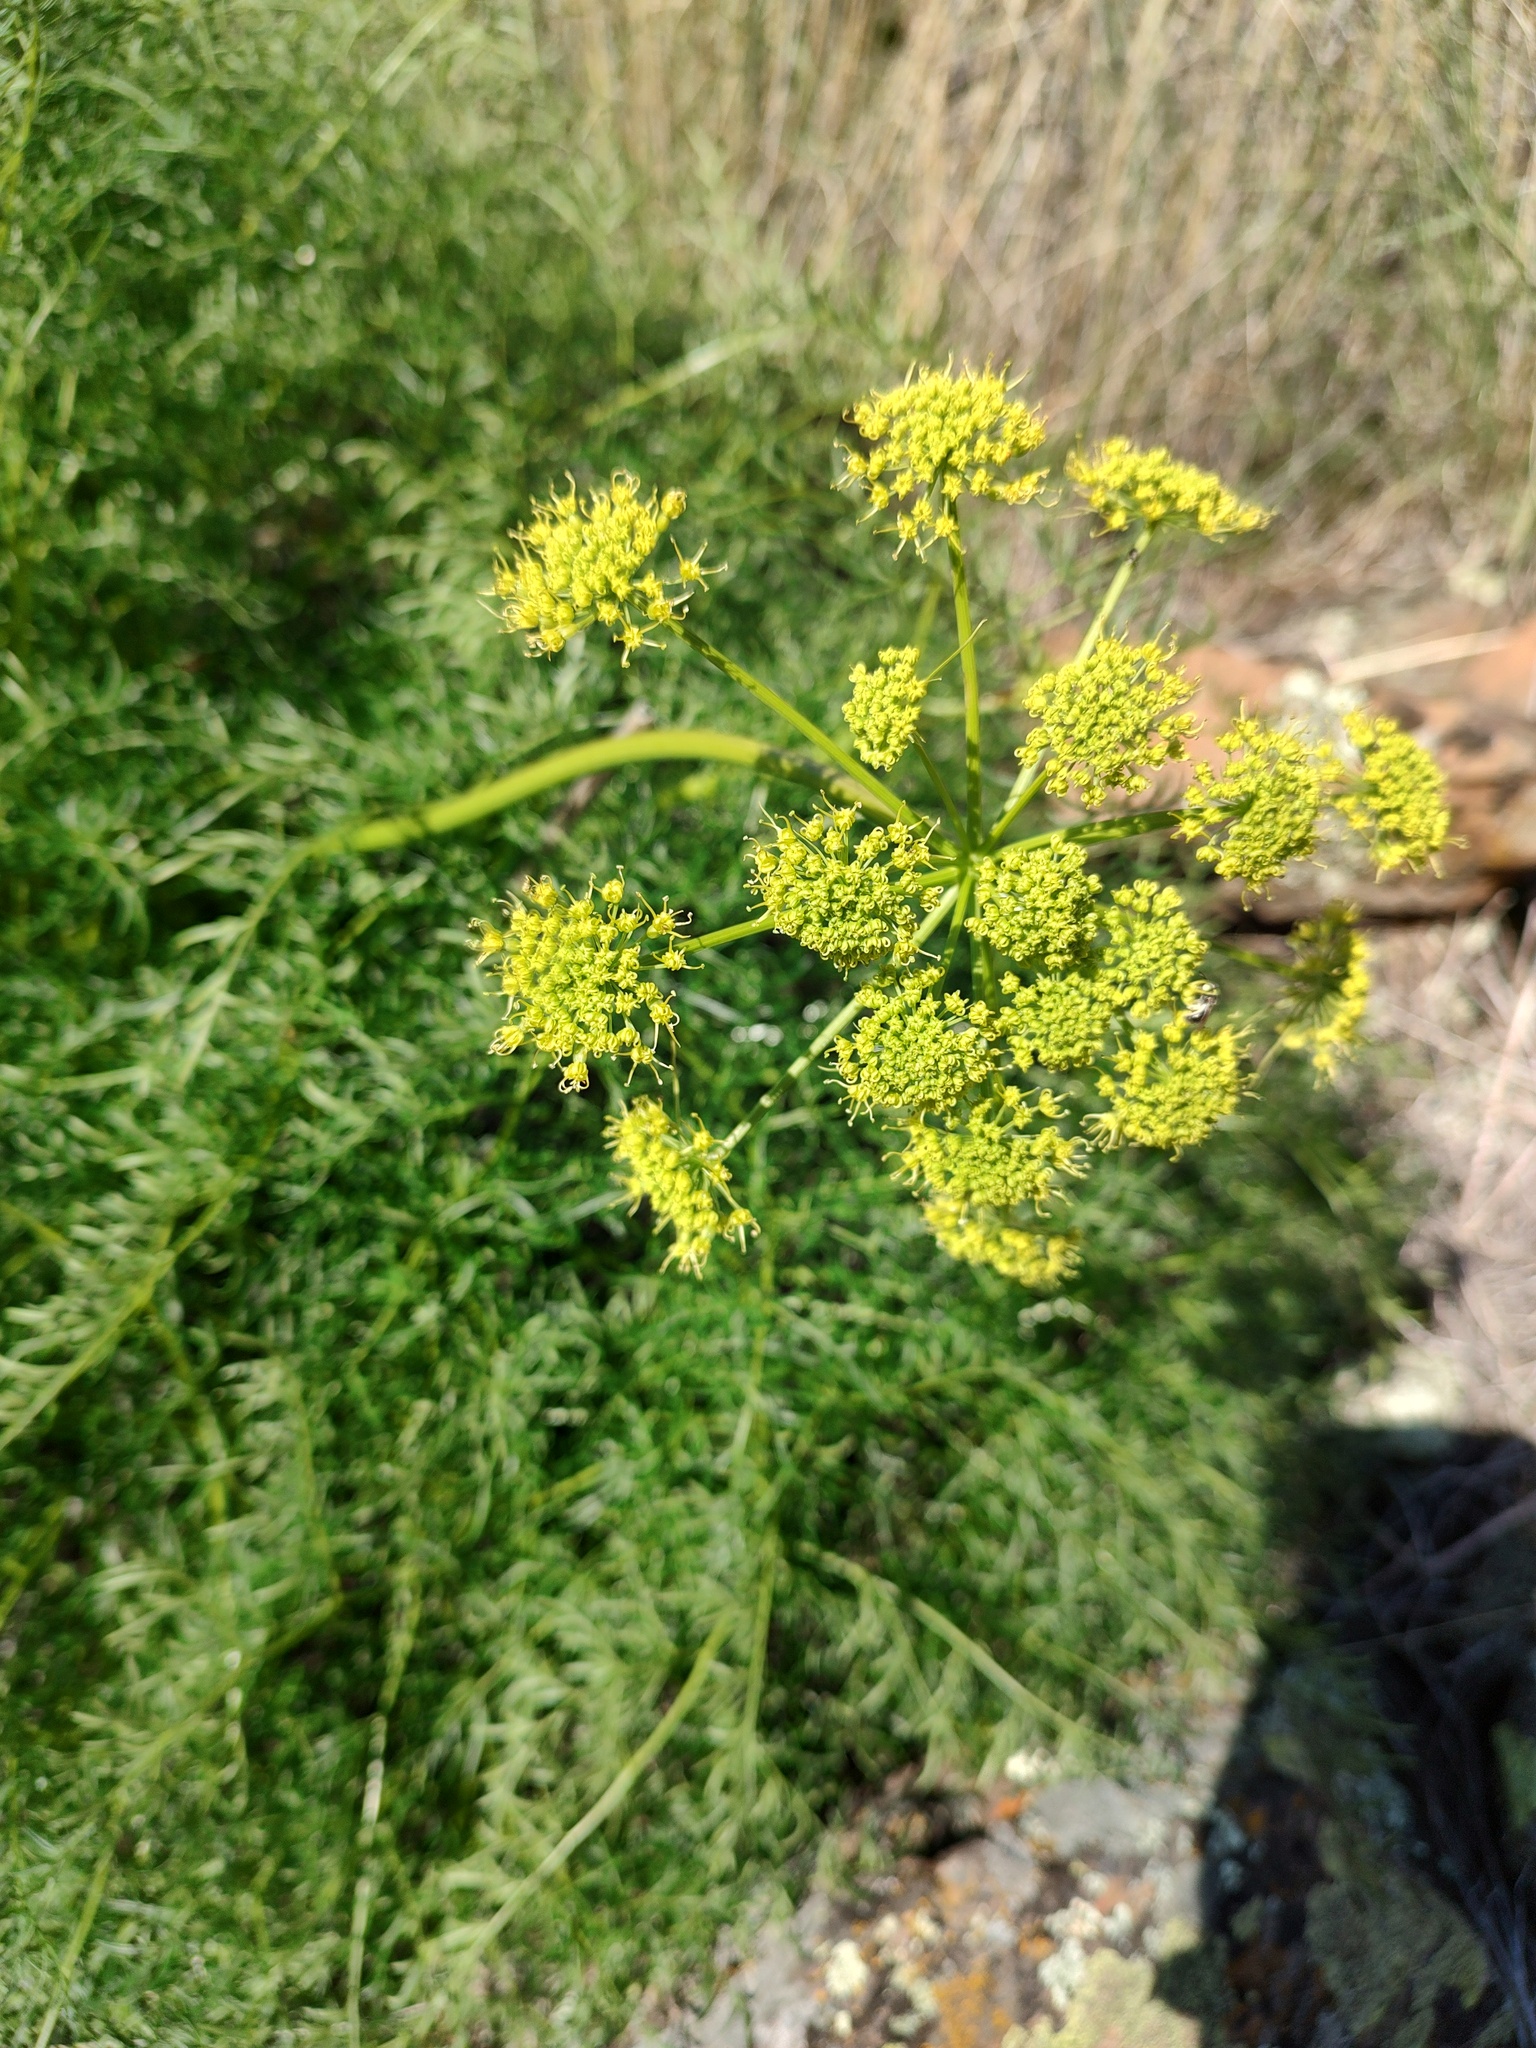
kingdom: Plantae
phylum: Tracheophyta
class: Magnoliopsida
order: Apiales
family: Apiaceae
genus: Lomatium
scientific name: Lomatium multifidum
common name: Carrot-leaved biscuitroot
